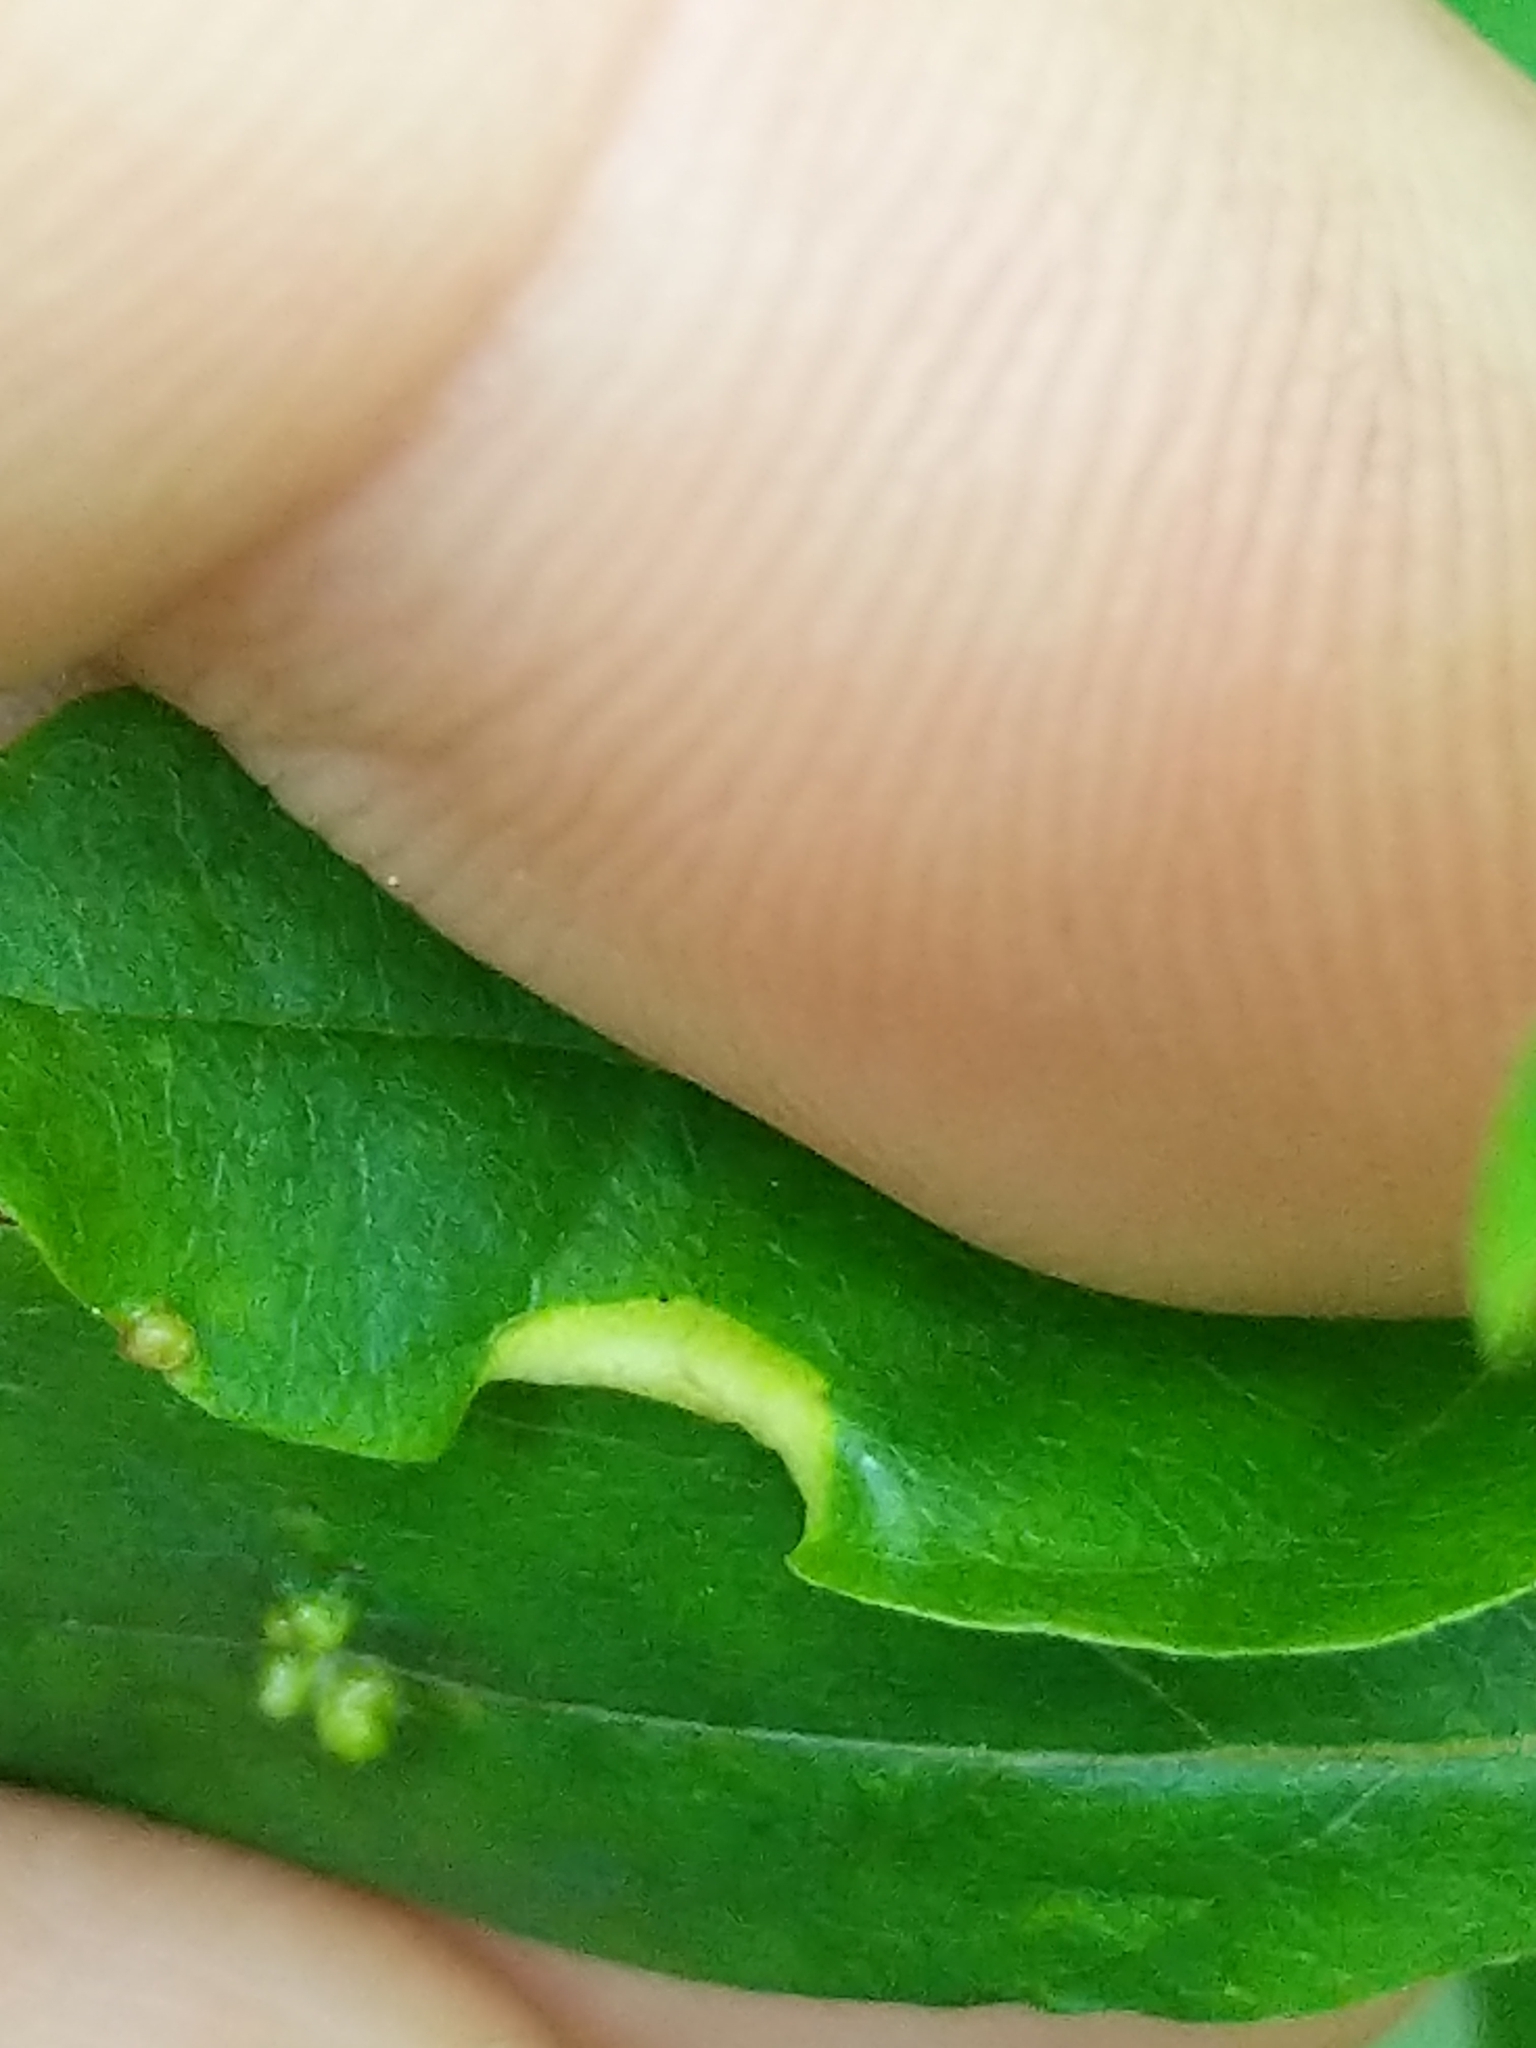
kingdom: Animalia
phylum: Arthropoda
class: Insecta
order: Hemiptera
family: Phylloxeridae
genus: Phylloxerina
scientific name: Phylloxerina nyssae
